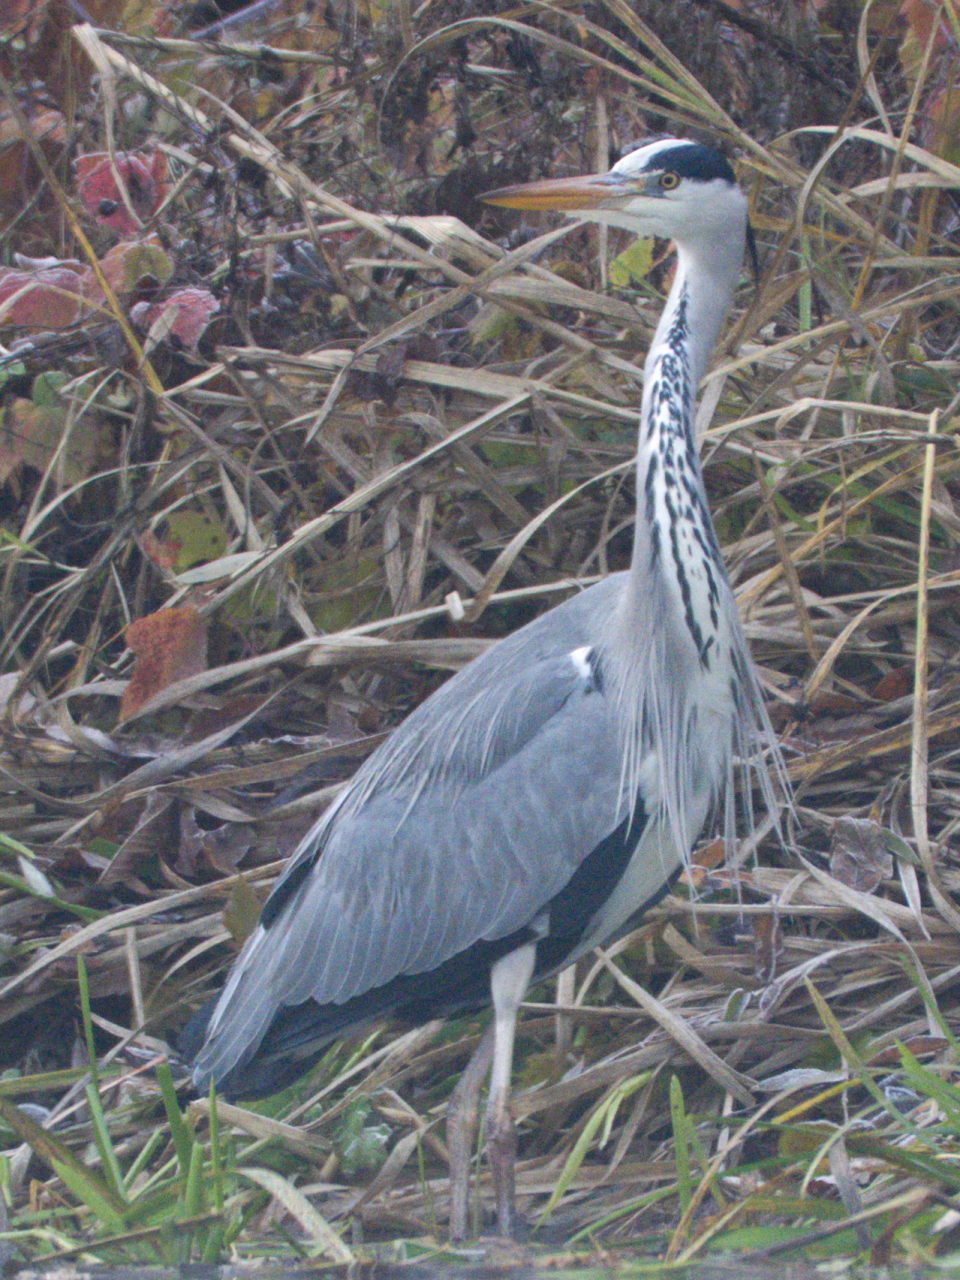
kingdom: Animalia
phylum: Chordata
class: Aves
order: Pelecaniformes
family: Ardeidae
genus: Ardea
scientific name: Ardea cinerea
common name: Grey heron
